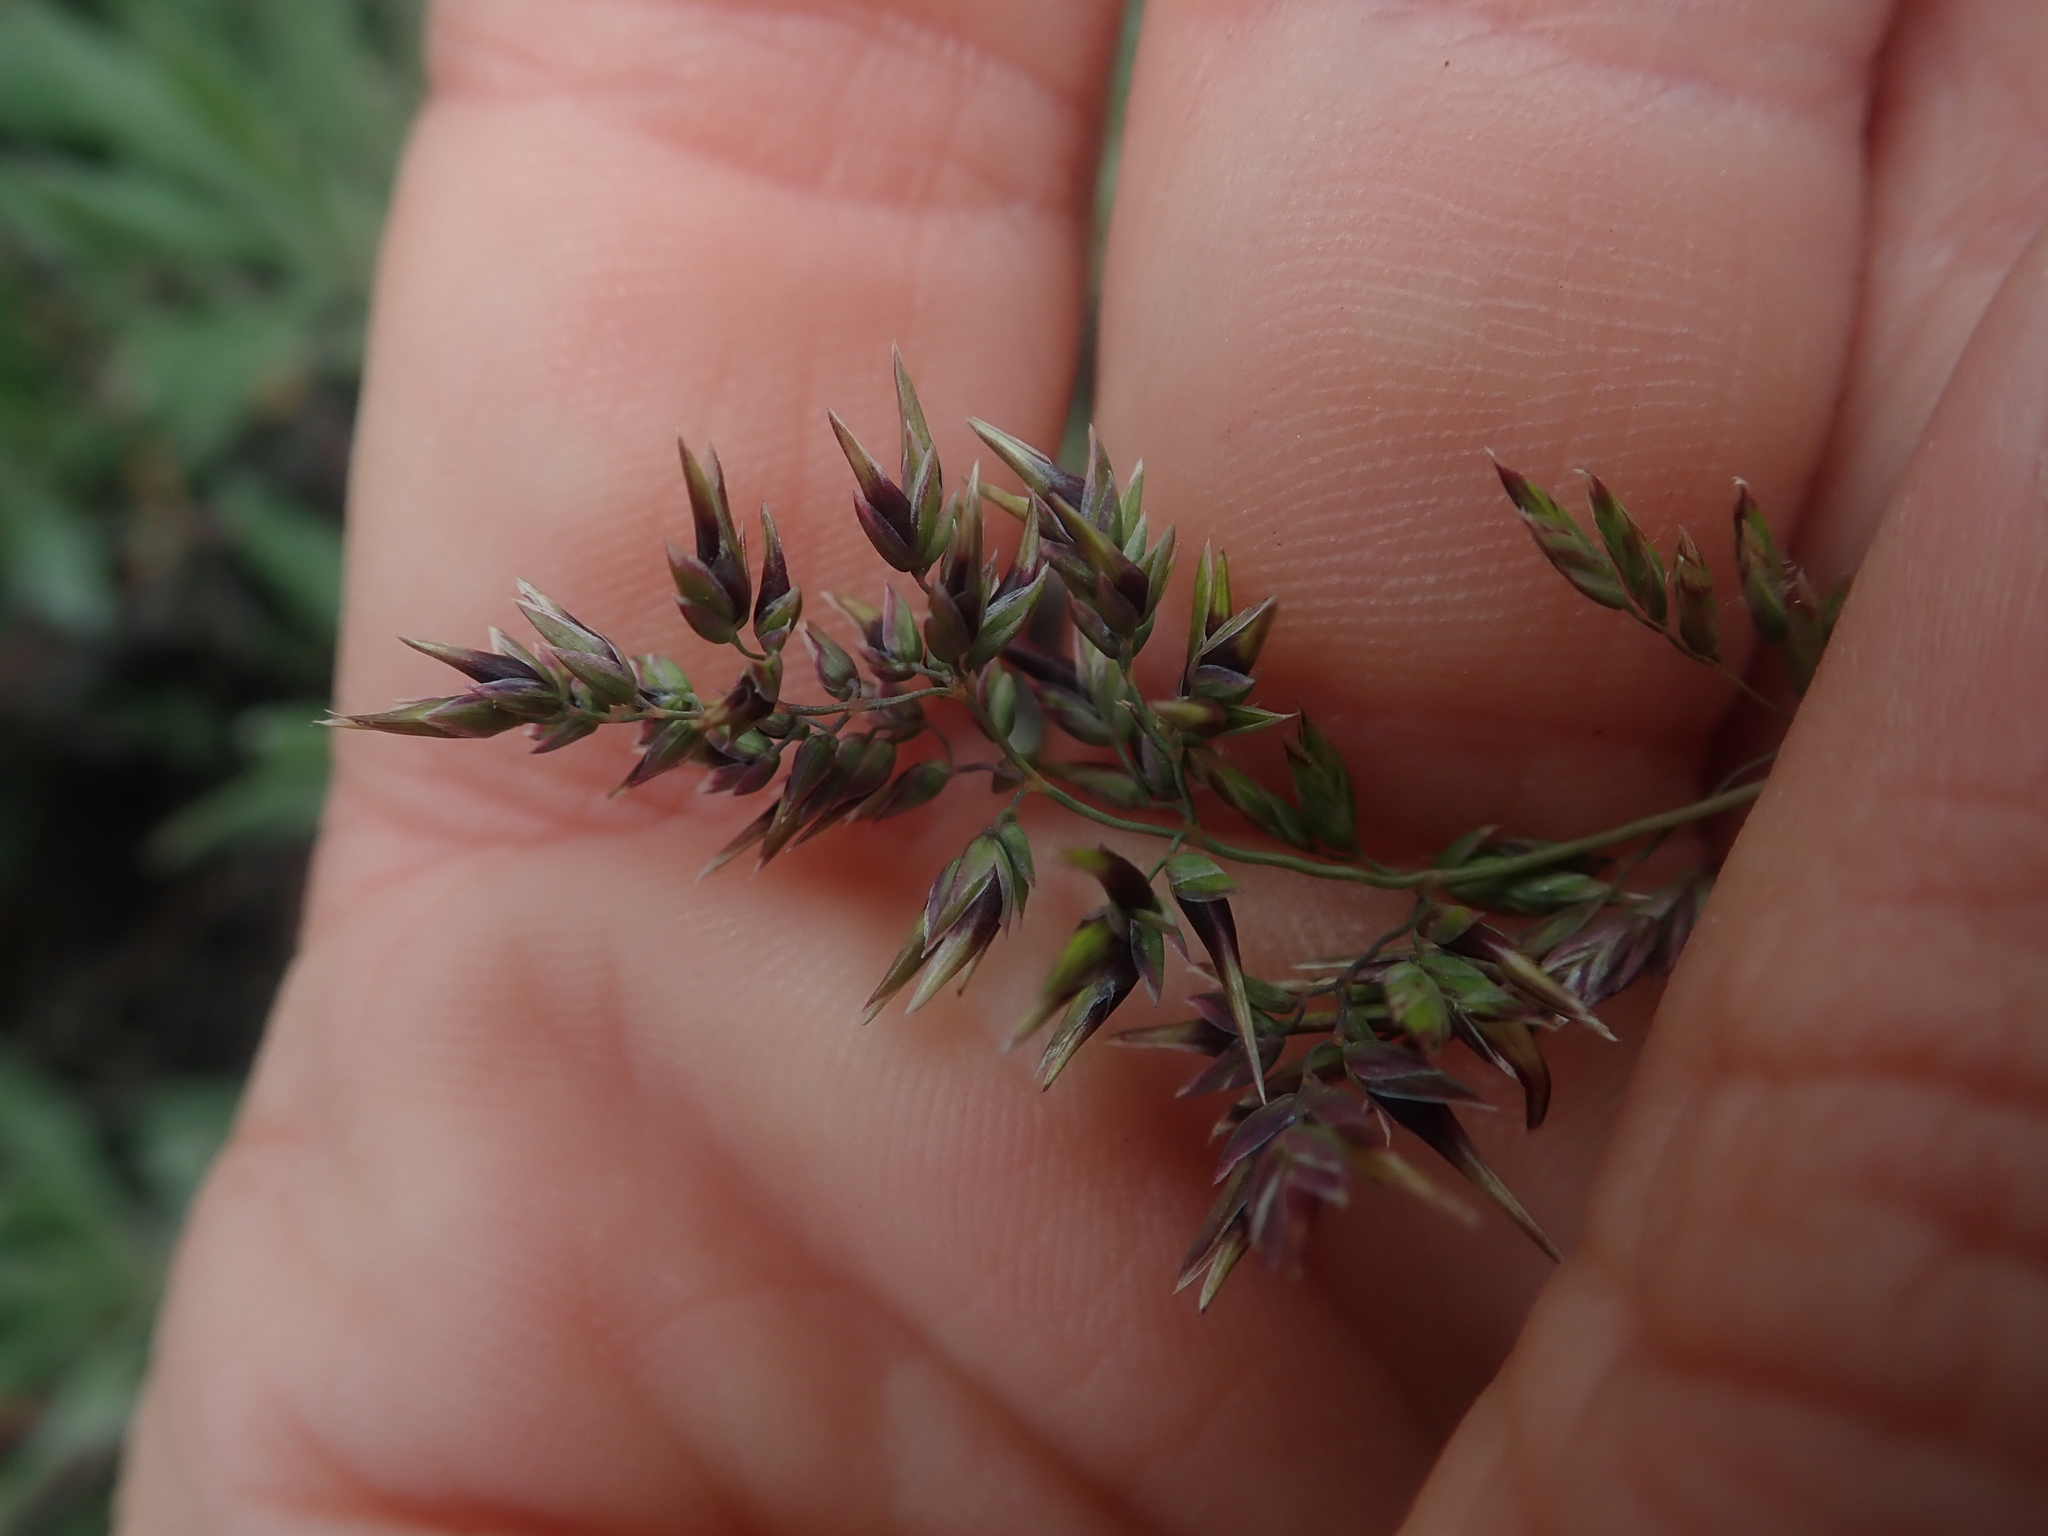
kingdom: Plantae
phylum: Tracheophyta
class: Liliopsida
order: Poales
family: Poaceae
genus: Poa
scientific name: Poa bulbosa
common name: Bulbous bluegrass
